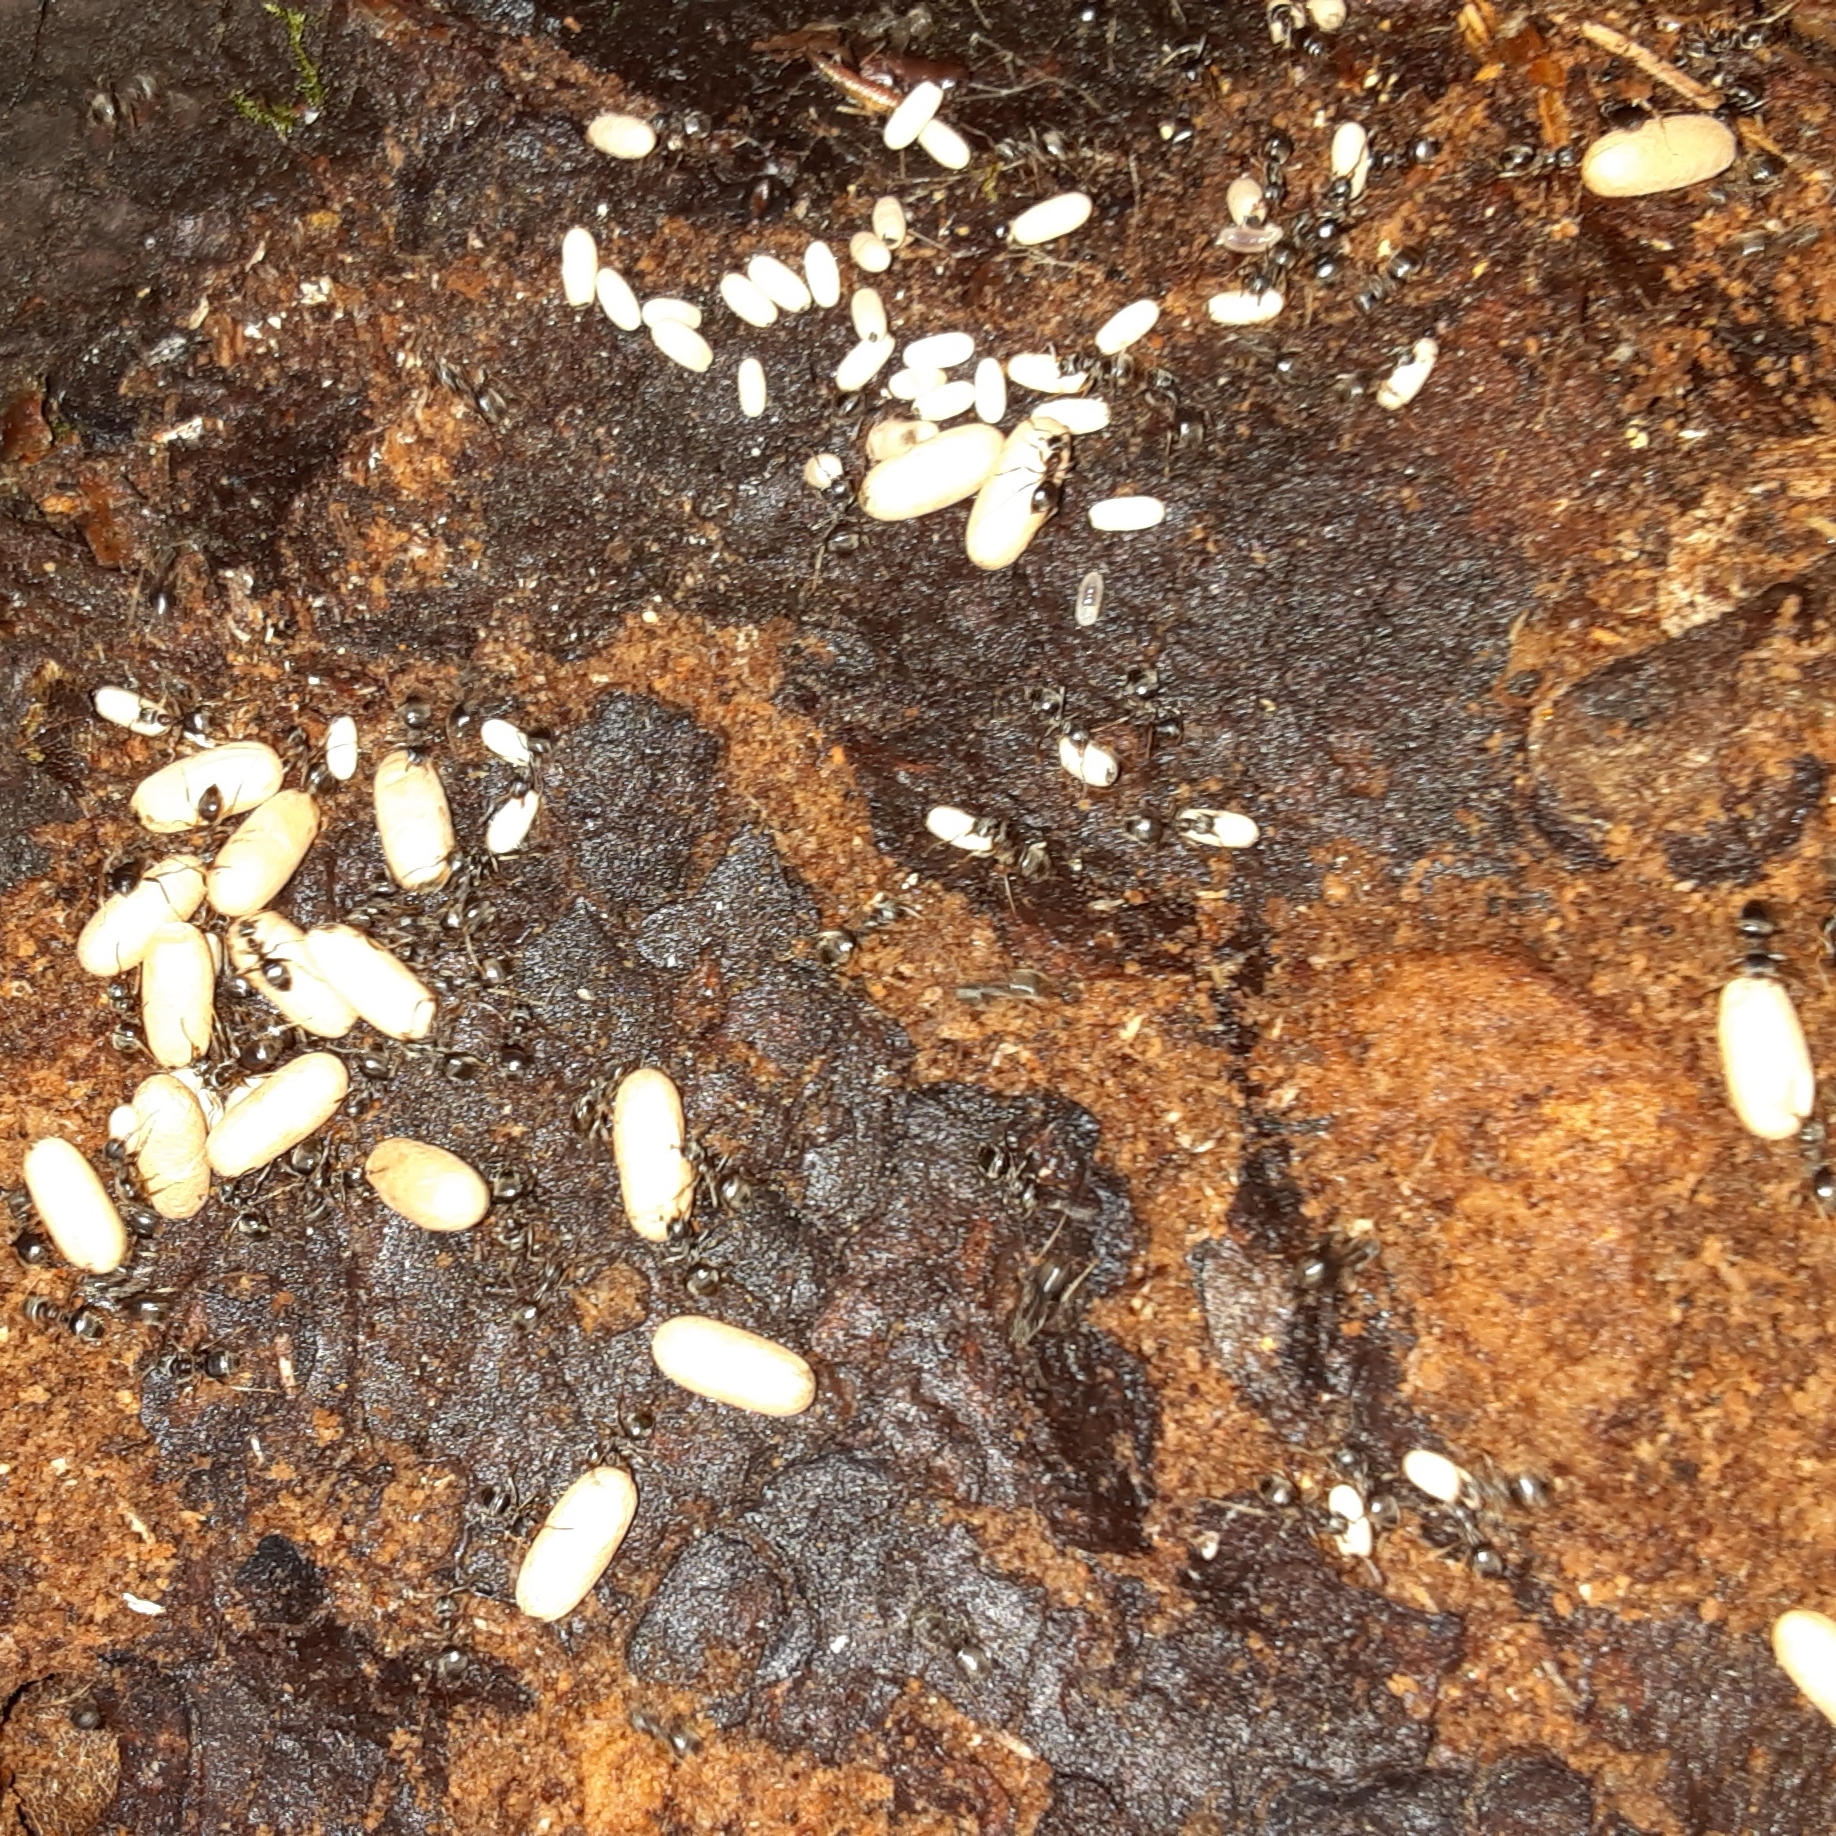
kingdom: Animalia
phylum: Arthropoda
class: Insecta
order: Hymenoptera
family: Formicidae
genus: Lasius
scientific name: Lasius americanus
